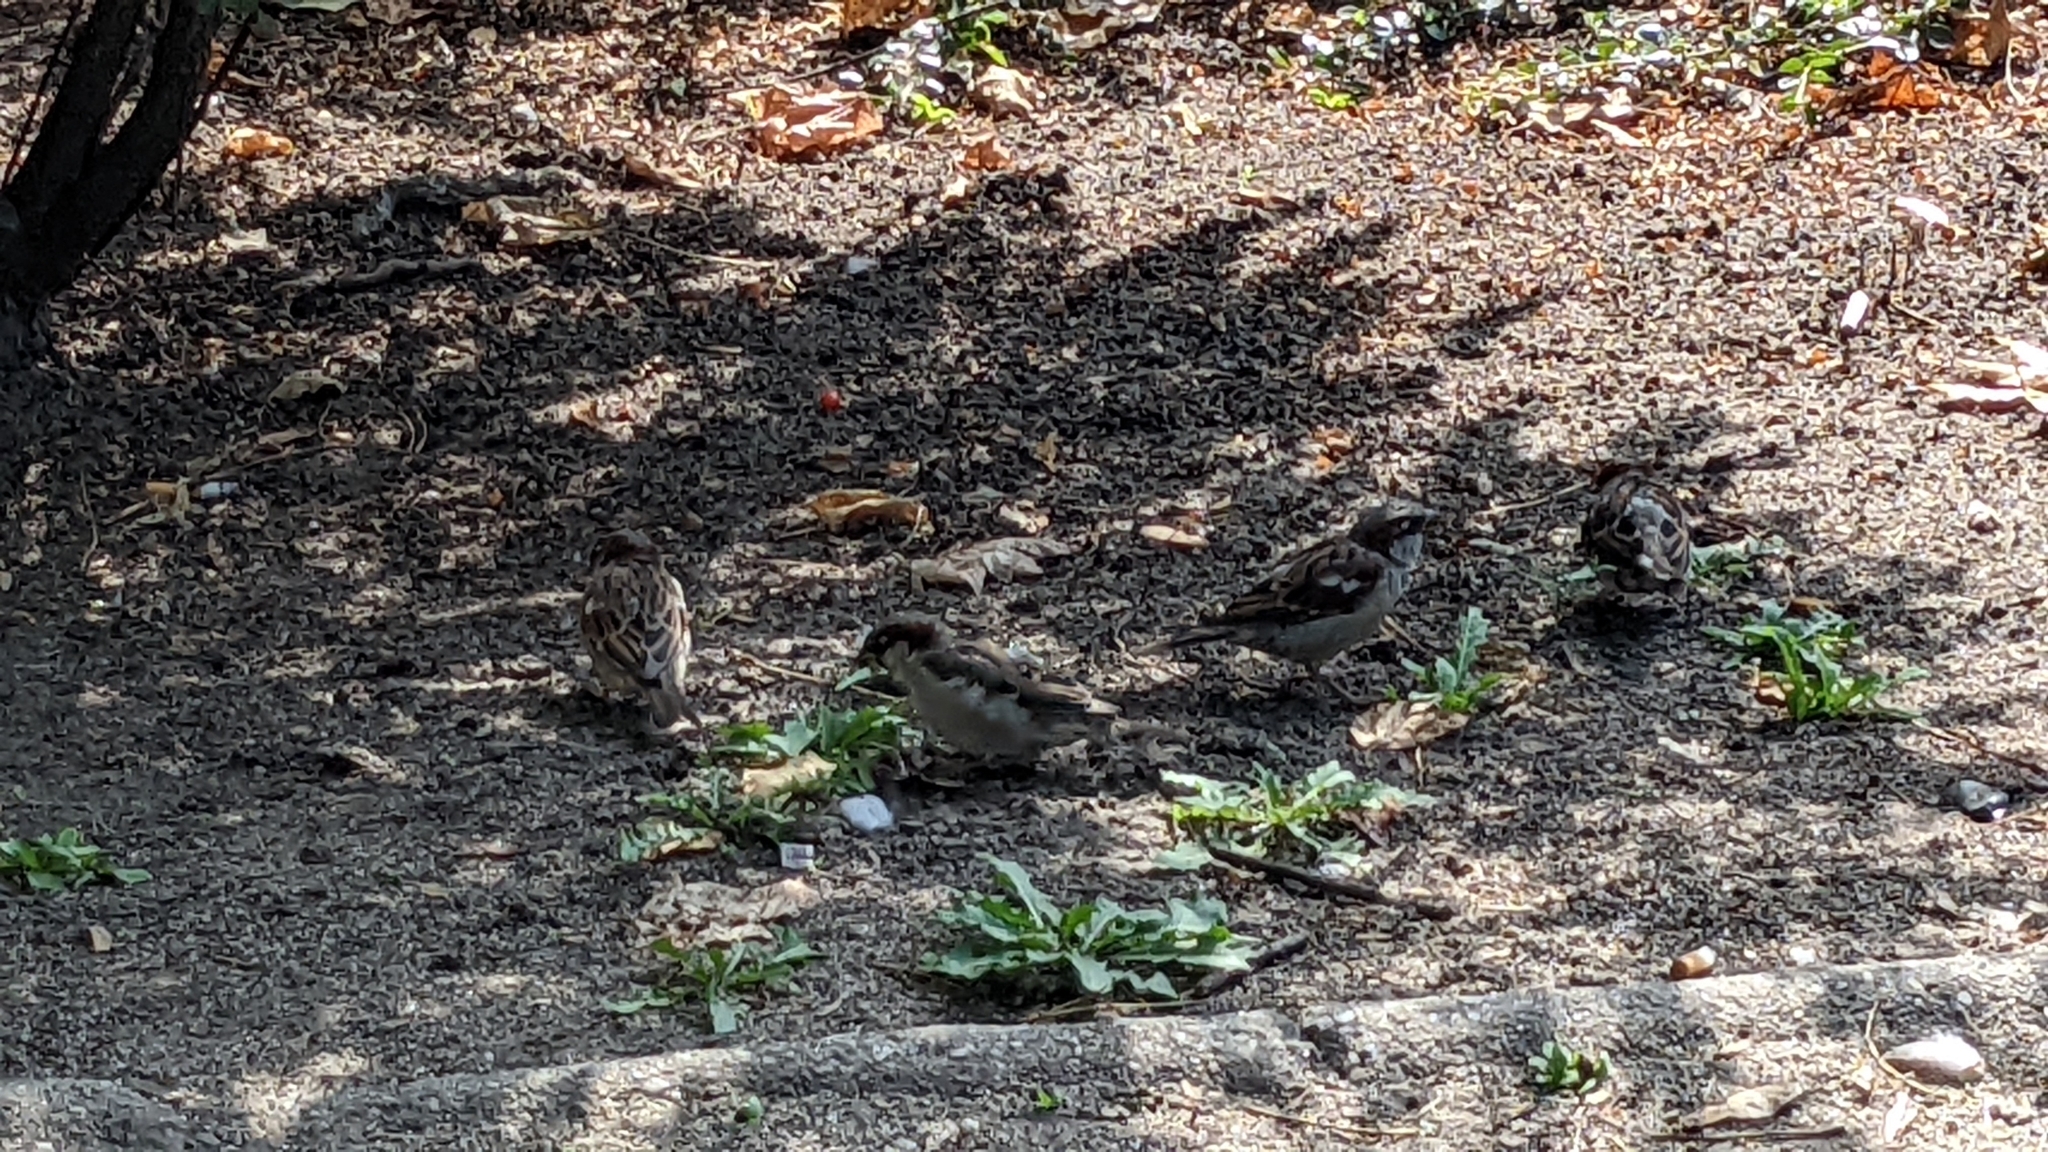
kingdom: Animalia
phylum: Chordata
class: Aves
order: Passeriformes
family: Passeridae
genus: Passer
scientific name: Passer domesticus
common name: House sparrow
